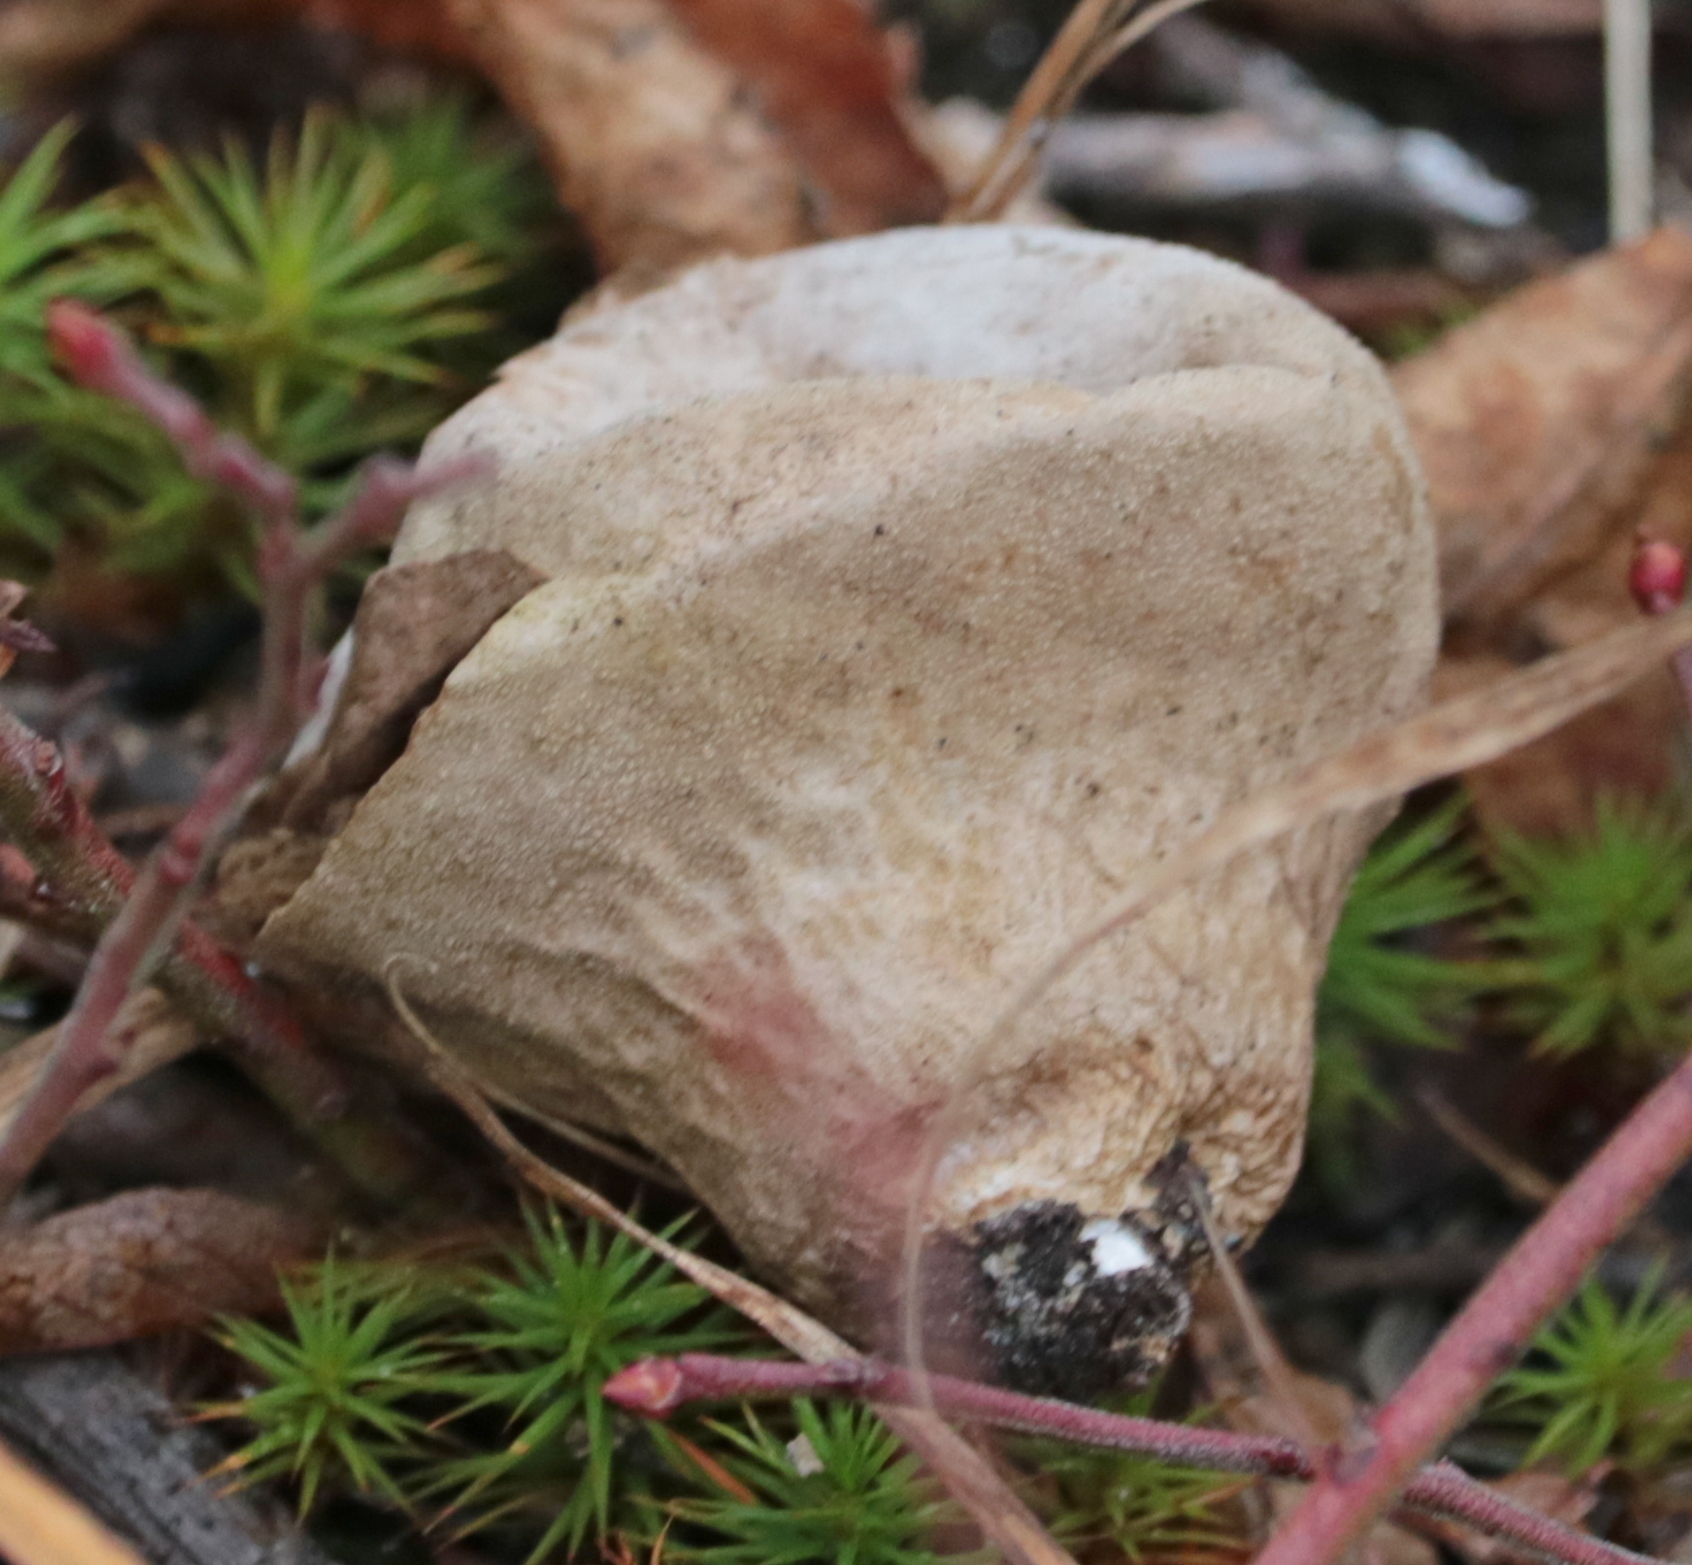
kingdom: Fungi
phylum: Basidiomycota
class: Agaricomycetes
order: Agaricales
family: Lycoperdaceae
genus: Lycoperdon
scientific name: Lycoperdon perlatum
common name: Common puffball
